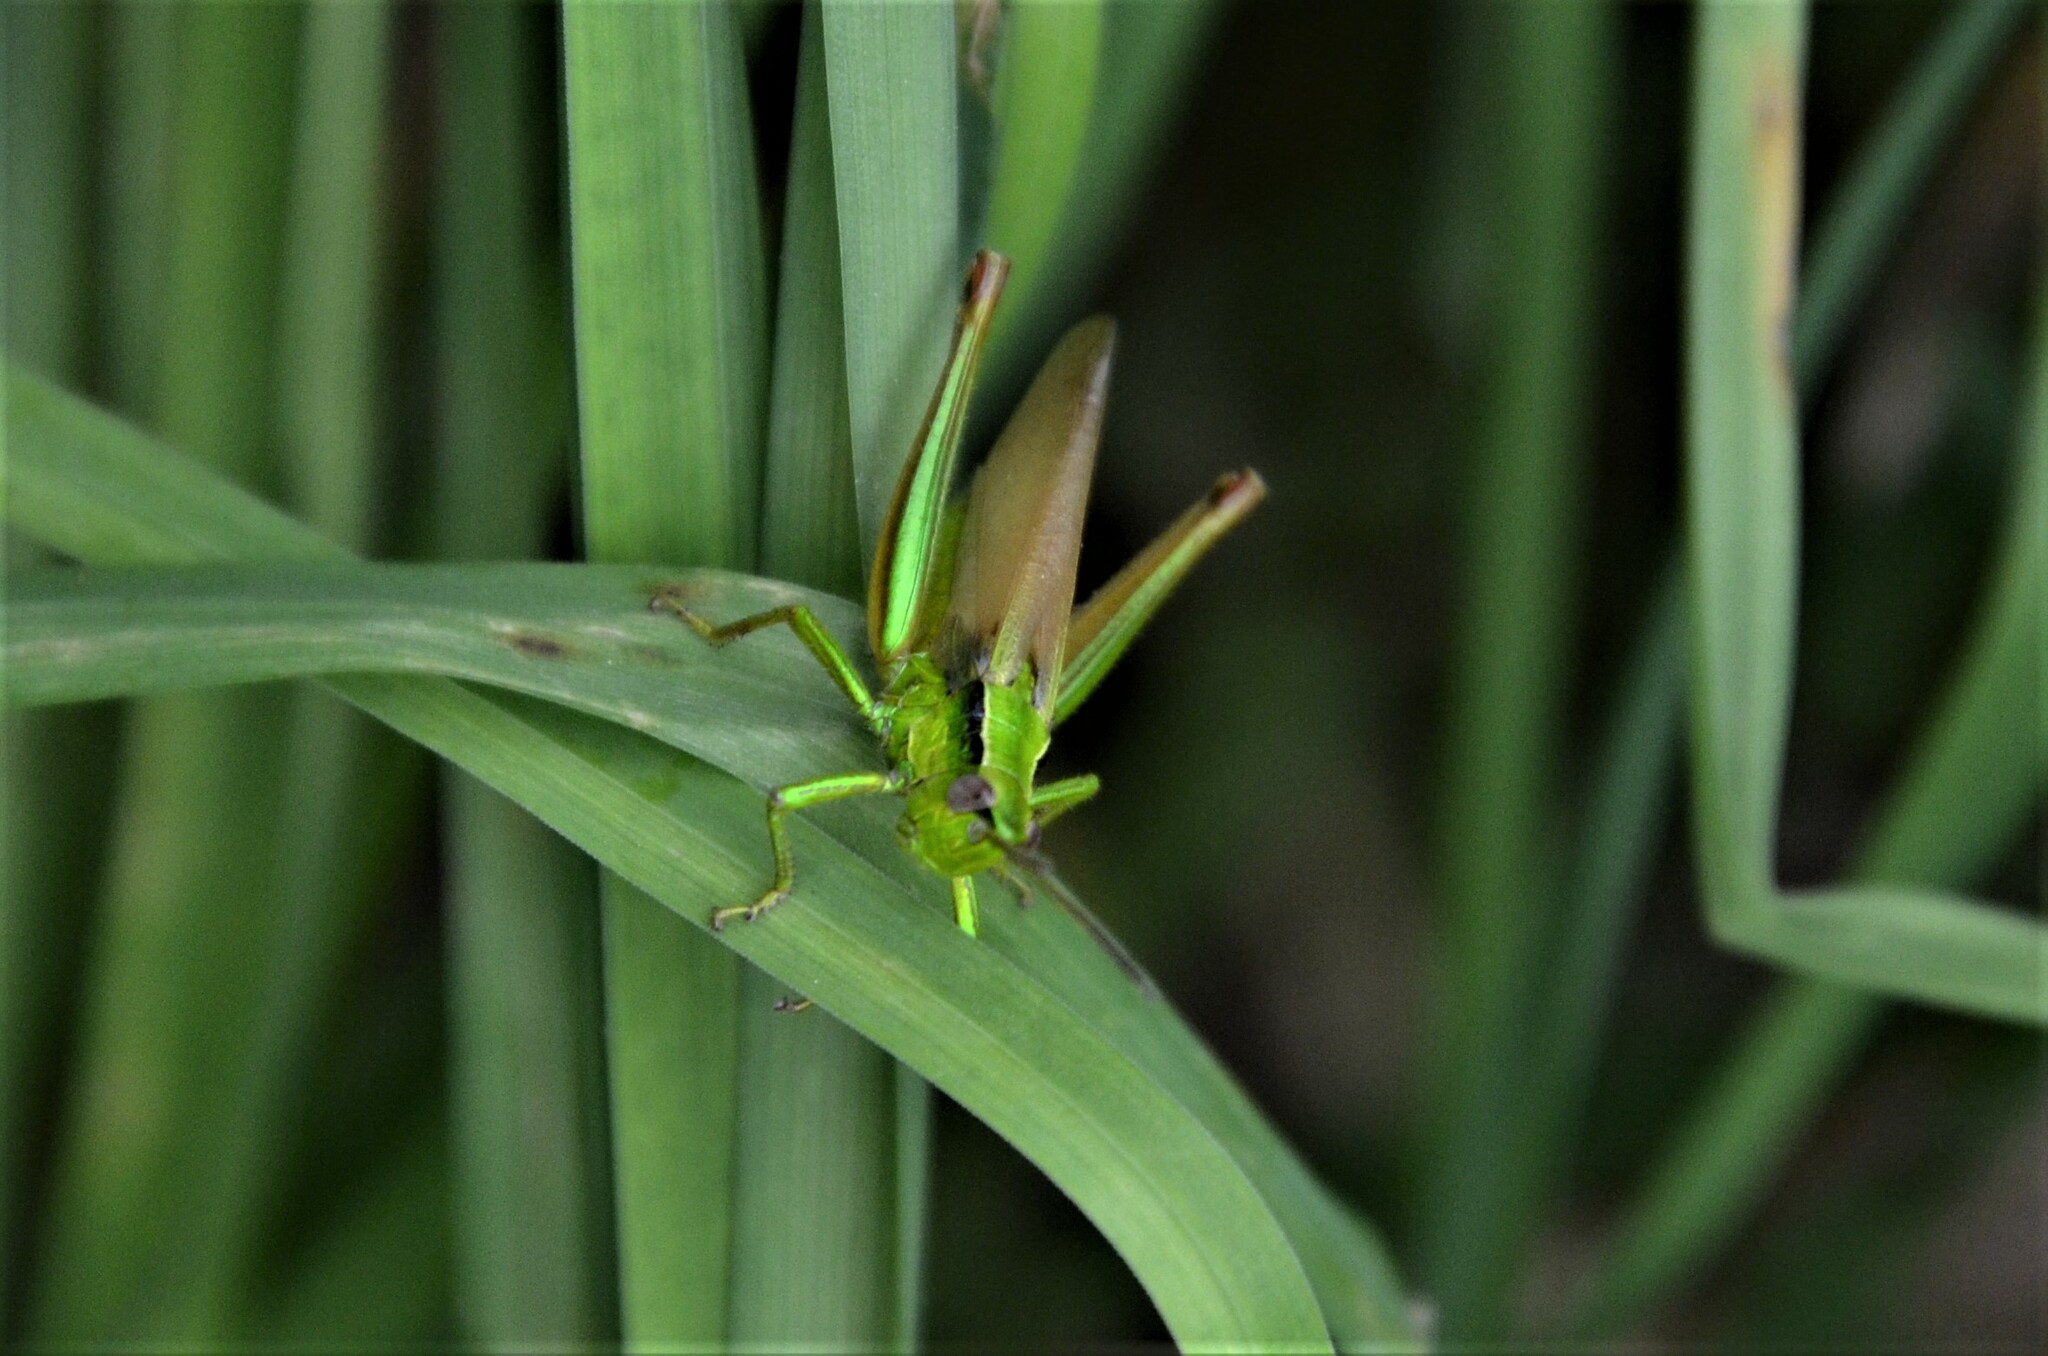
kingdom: Animalia
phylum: Arthropoda
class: Insecta
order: Orthoptera
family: Acrididae
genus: Euthystira
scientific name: Euthystira brachyptera
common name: Small gold grasshopper
